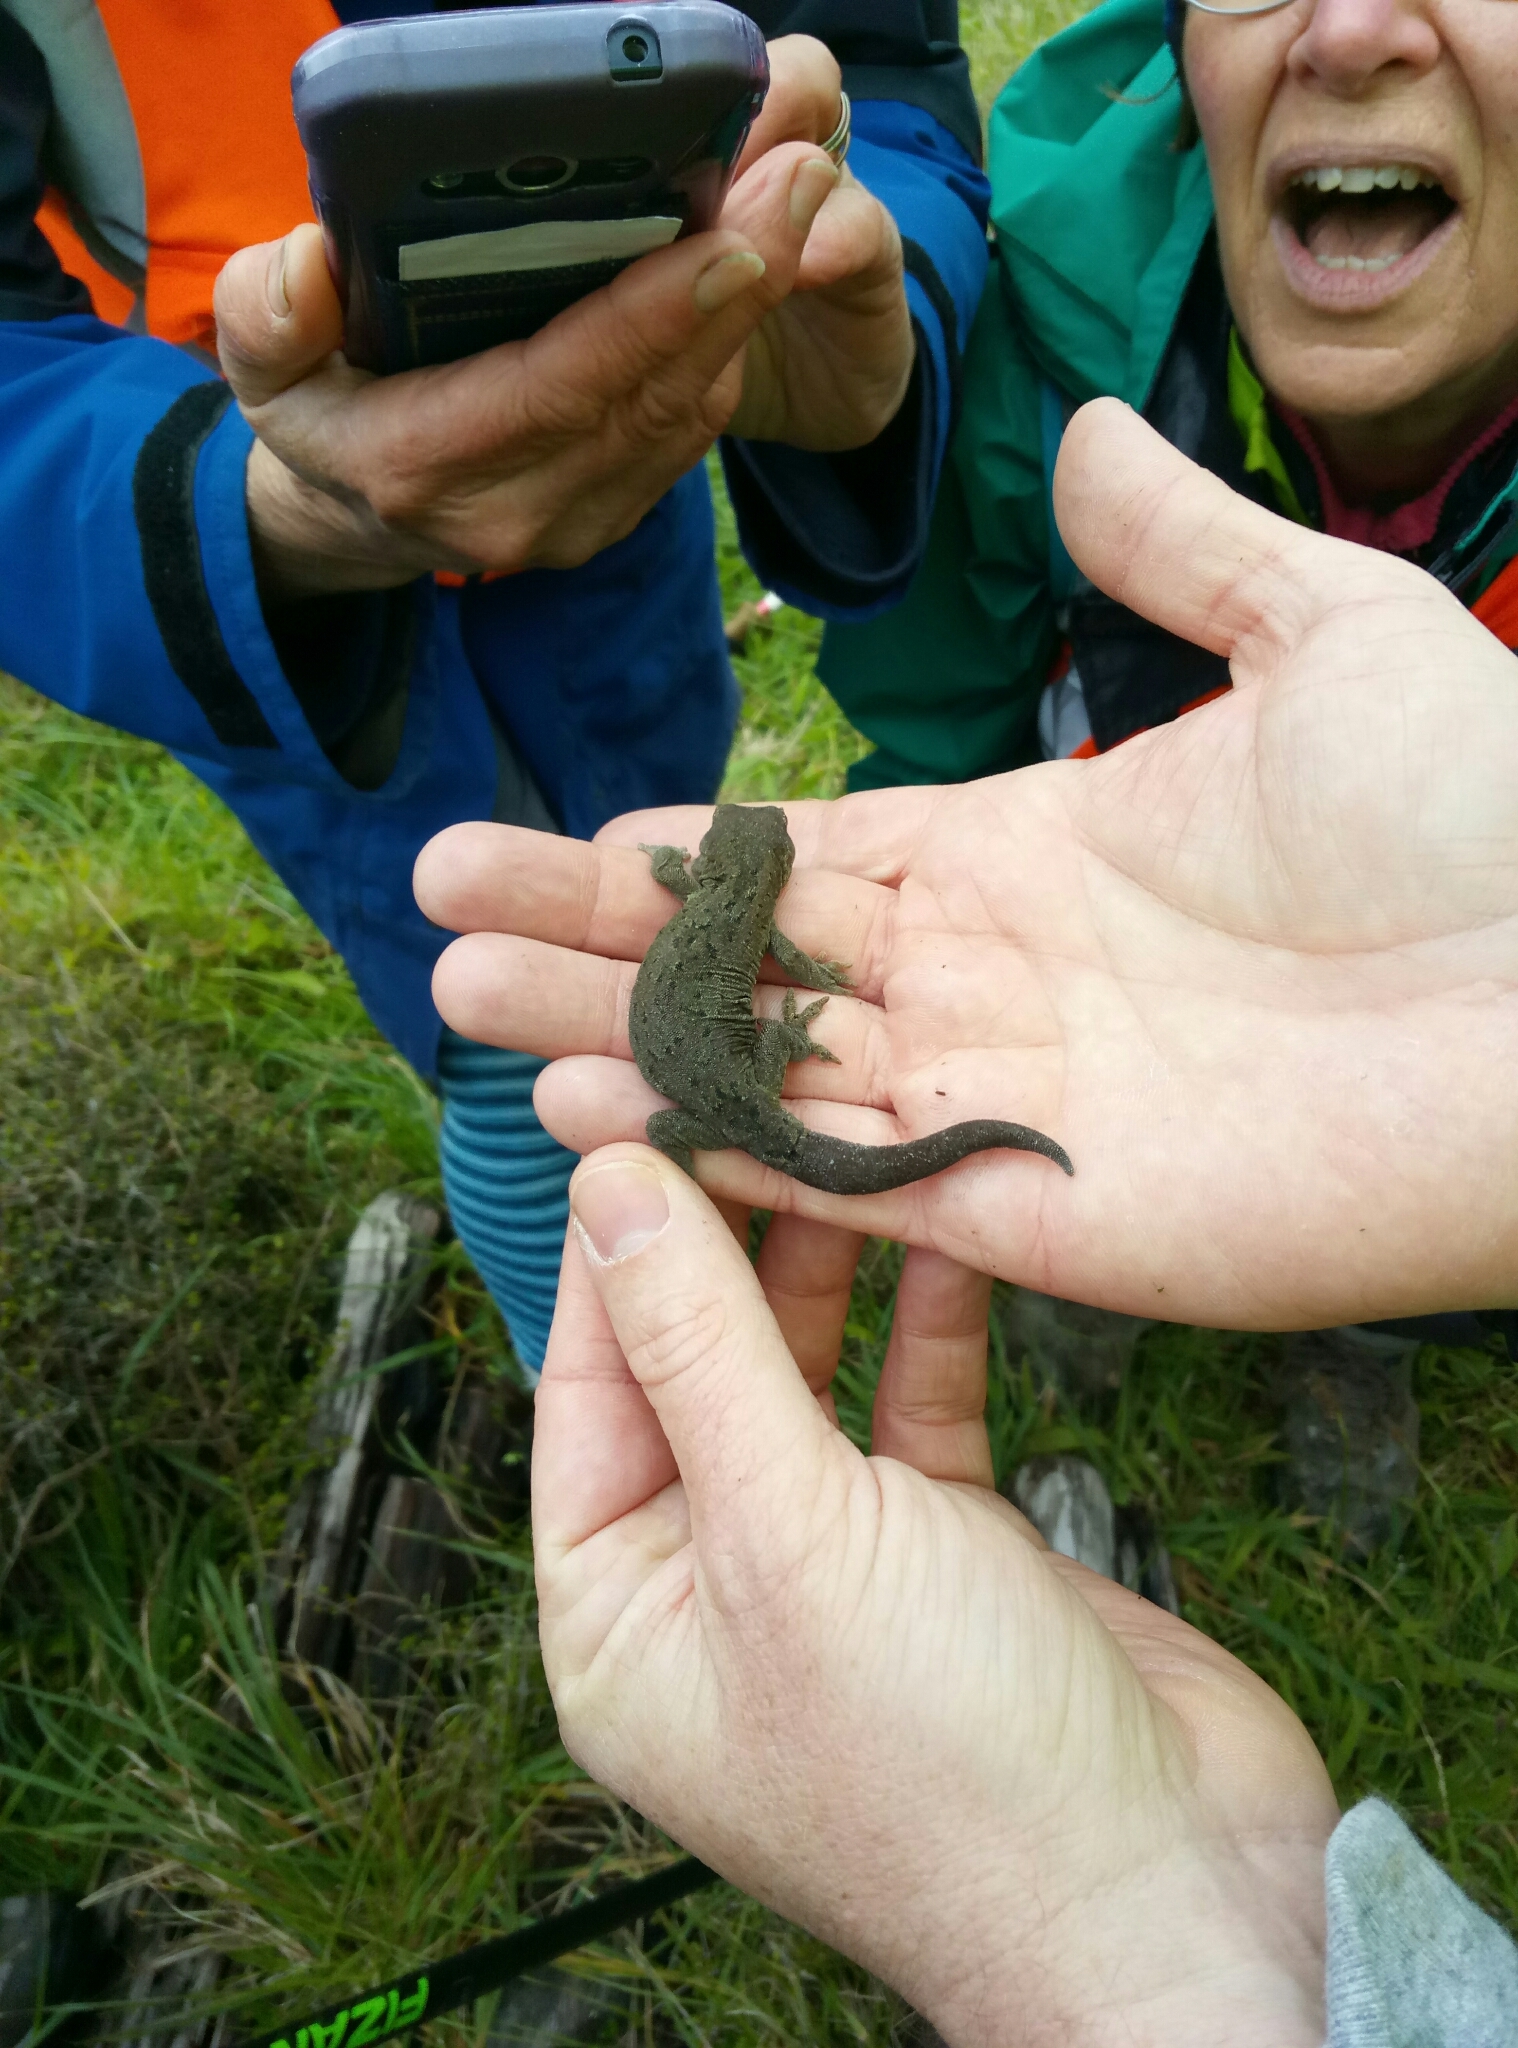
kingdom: Animalia
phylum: Chordata
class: Squamata
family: Diplodactylidae
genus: Woodworthia
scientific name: Woodworthia maculata
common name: Raukawa gecko
